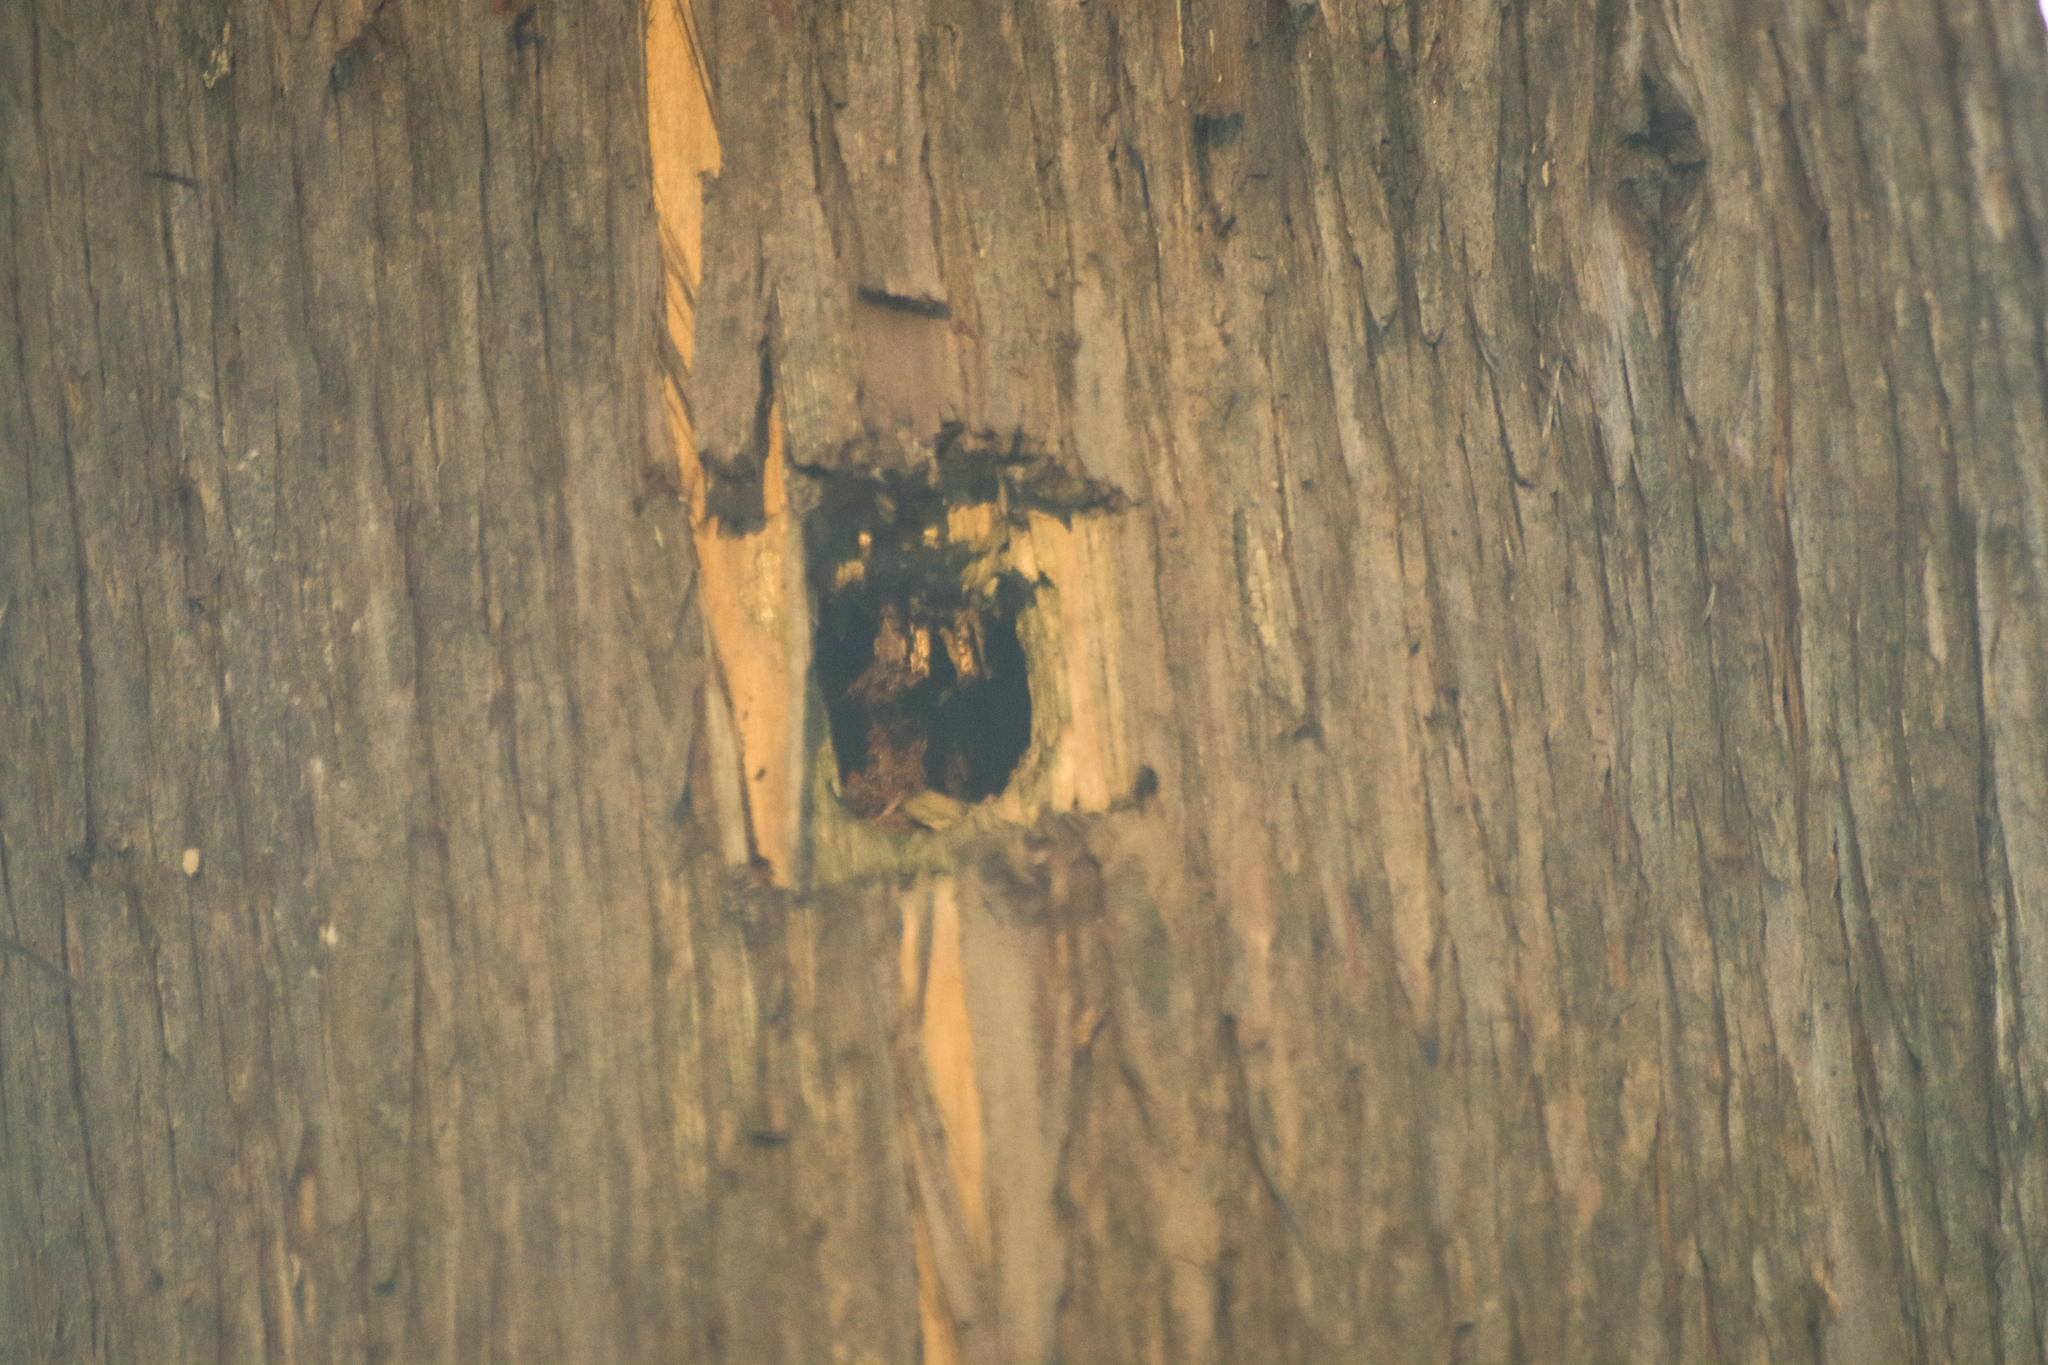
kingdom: Animalia
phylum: Chordata
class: Aves
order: Piciformes
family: Picidae
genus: Dryocopus
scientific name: Dryocopus pileatus
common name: Pileated woodpecker
